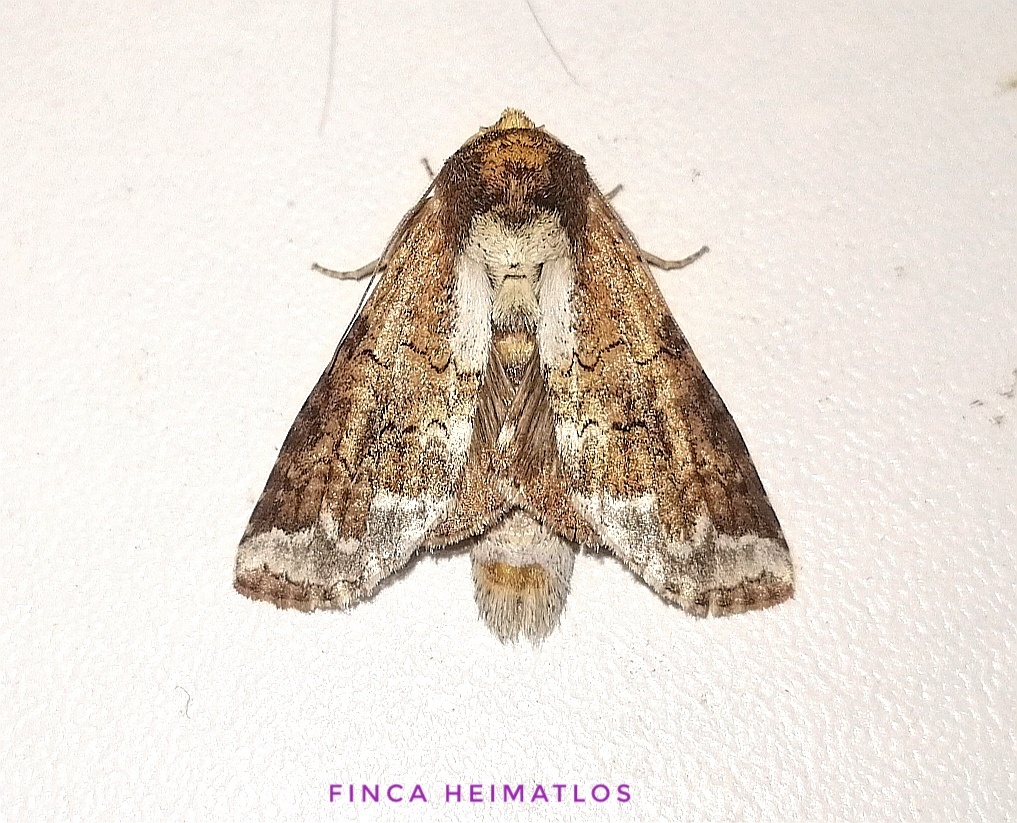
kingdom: Animalia
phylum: Arthropoda
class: Insecta
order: Lepidoptera
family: Notodontidae
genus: Sericochroa
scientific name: Sericochroa lauta
